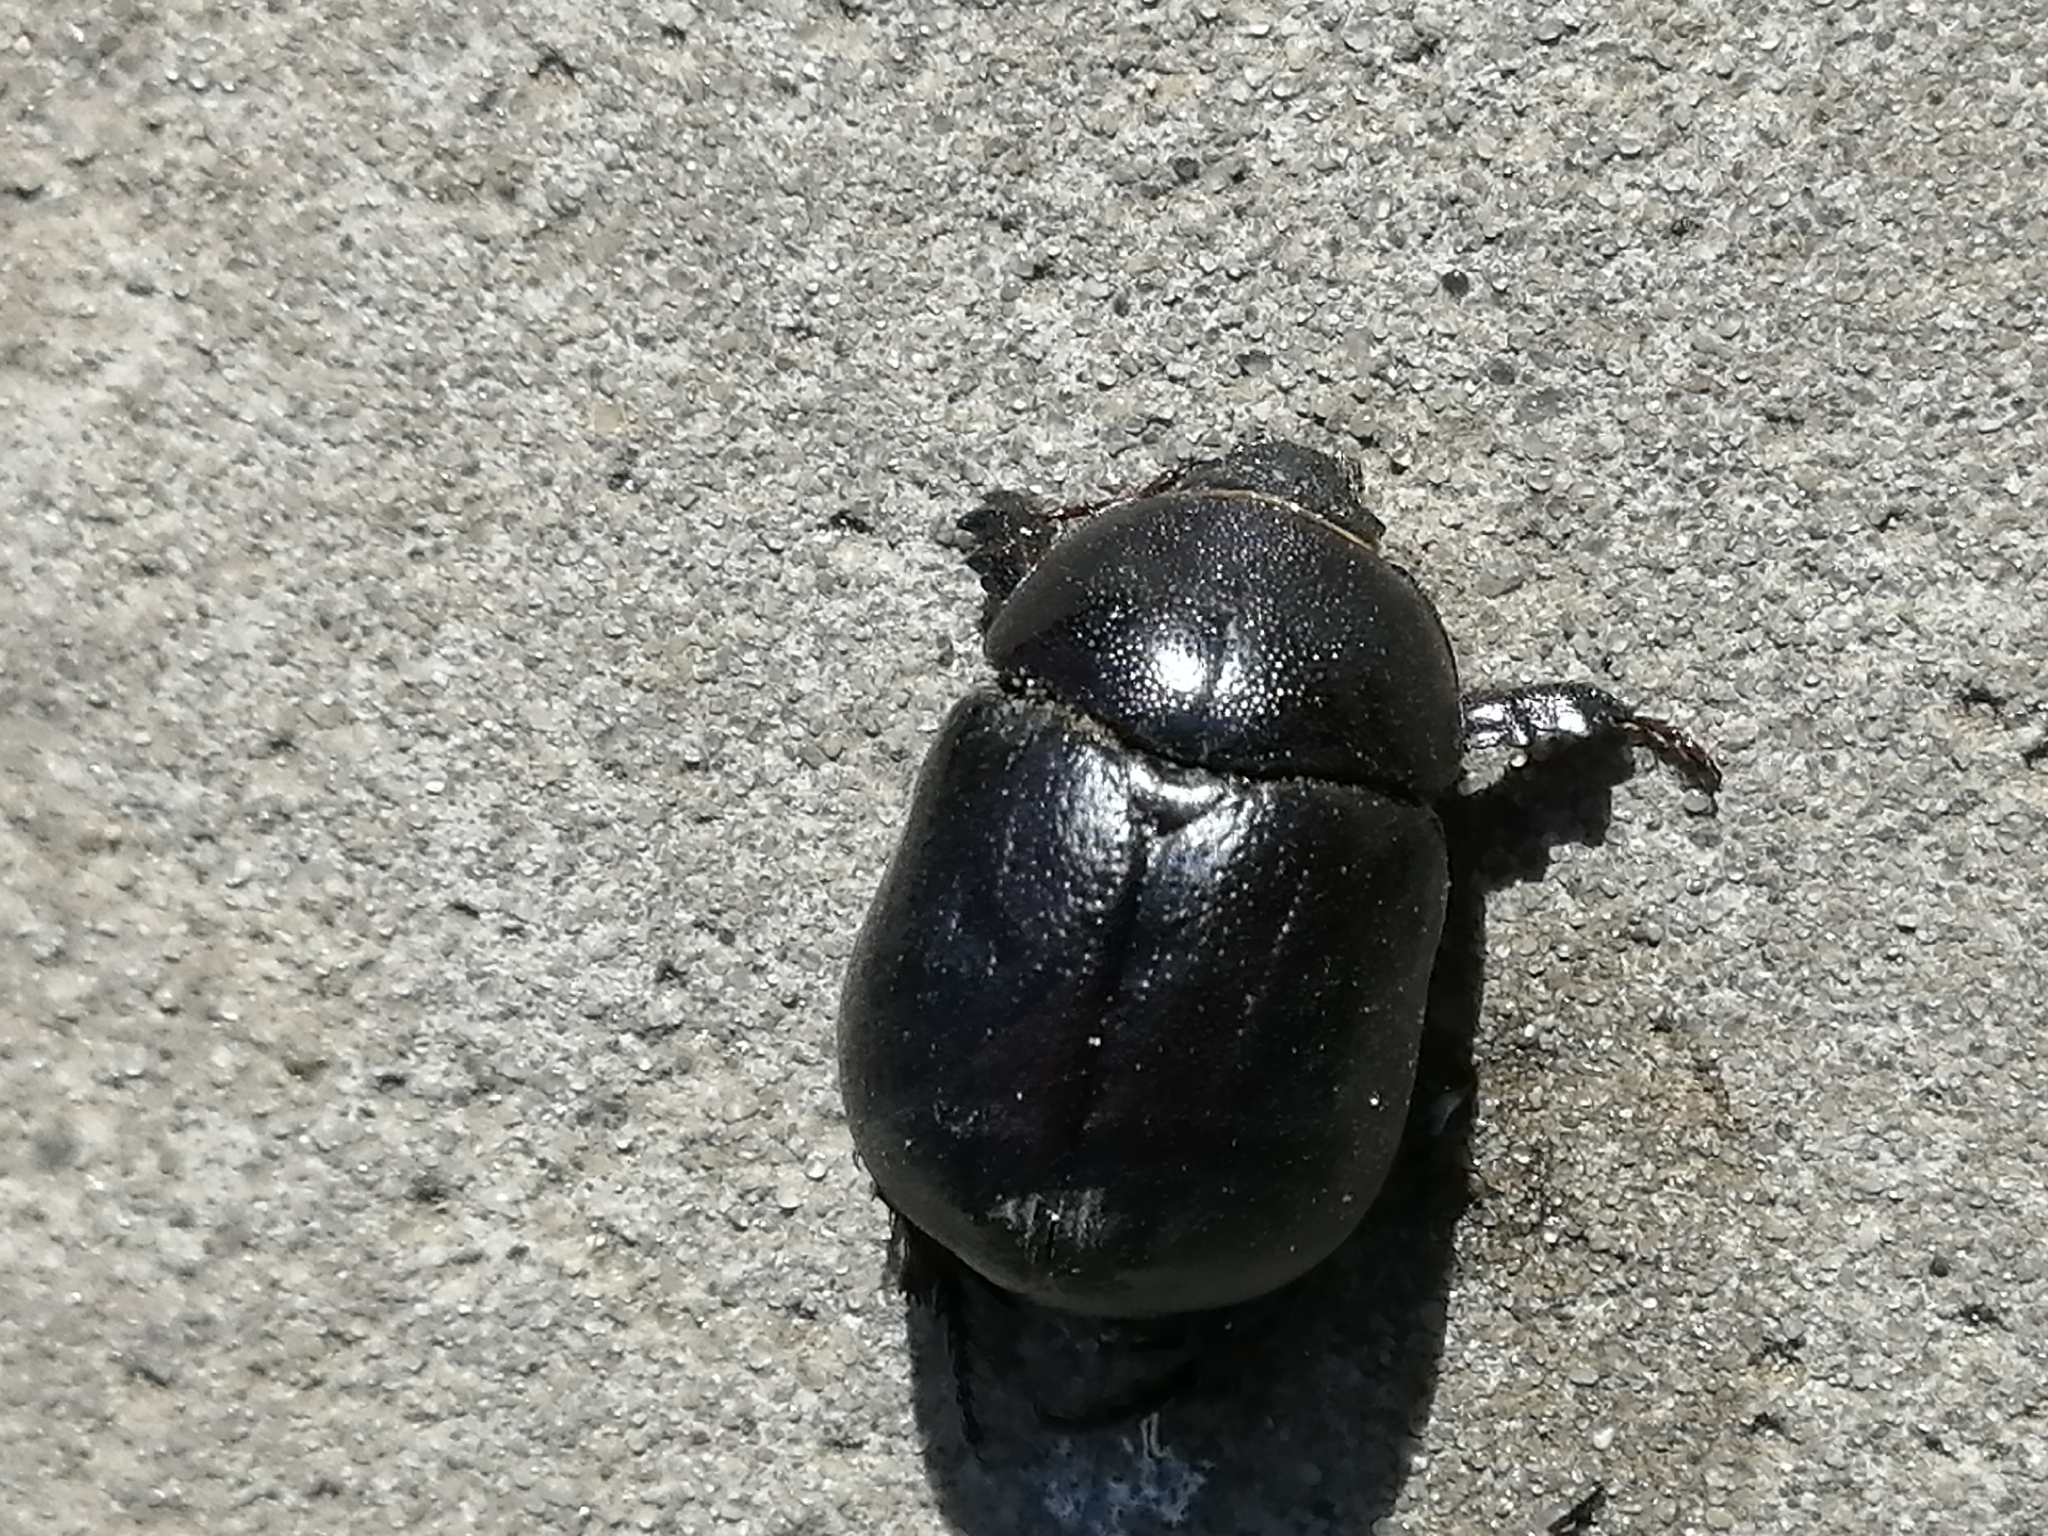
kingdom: Animalia
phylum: Arthropoda
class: Insecta
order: Coleoptera
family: Scarabaeidae
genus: Pentodon
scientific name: Pentodon idiota
